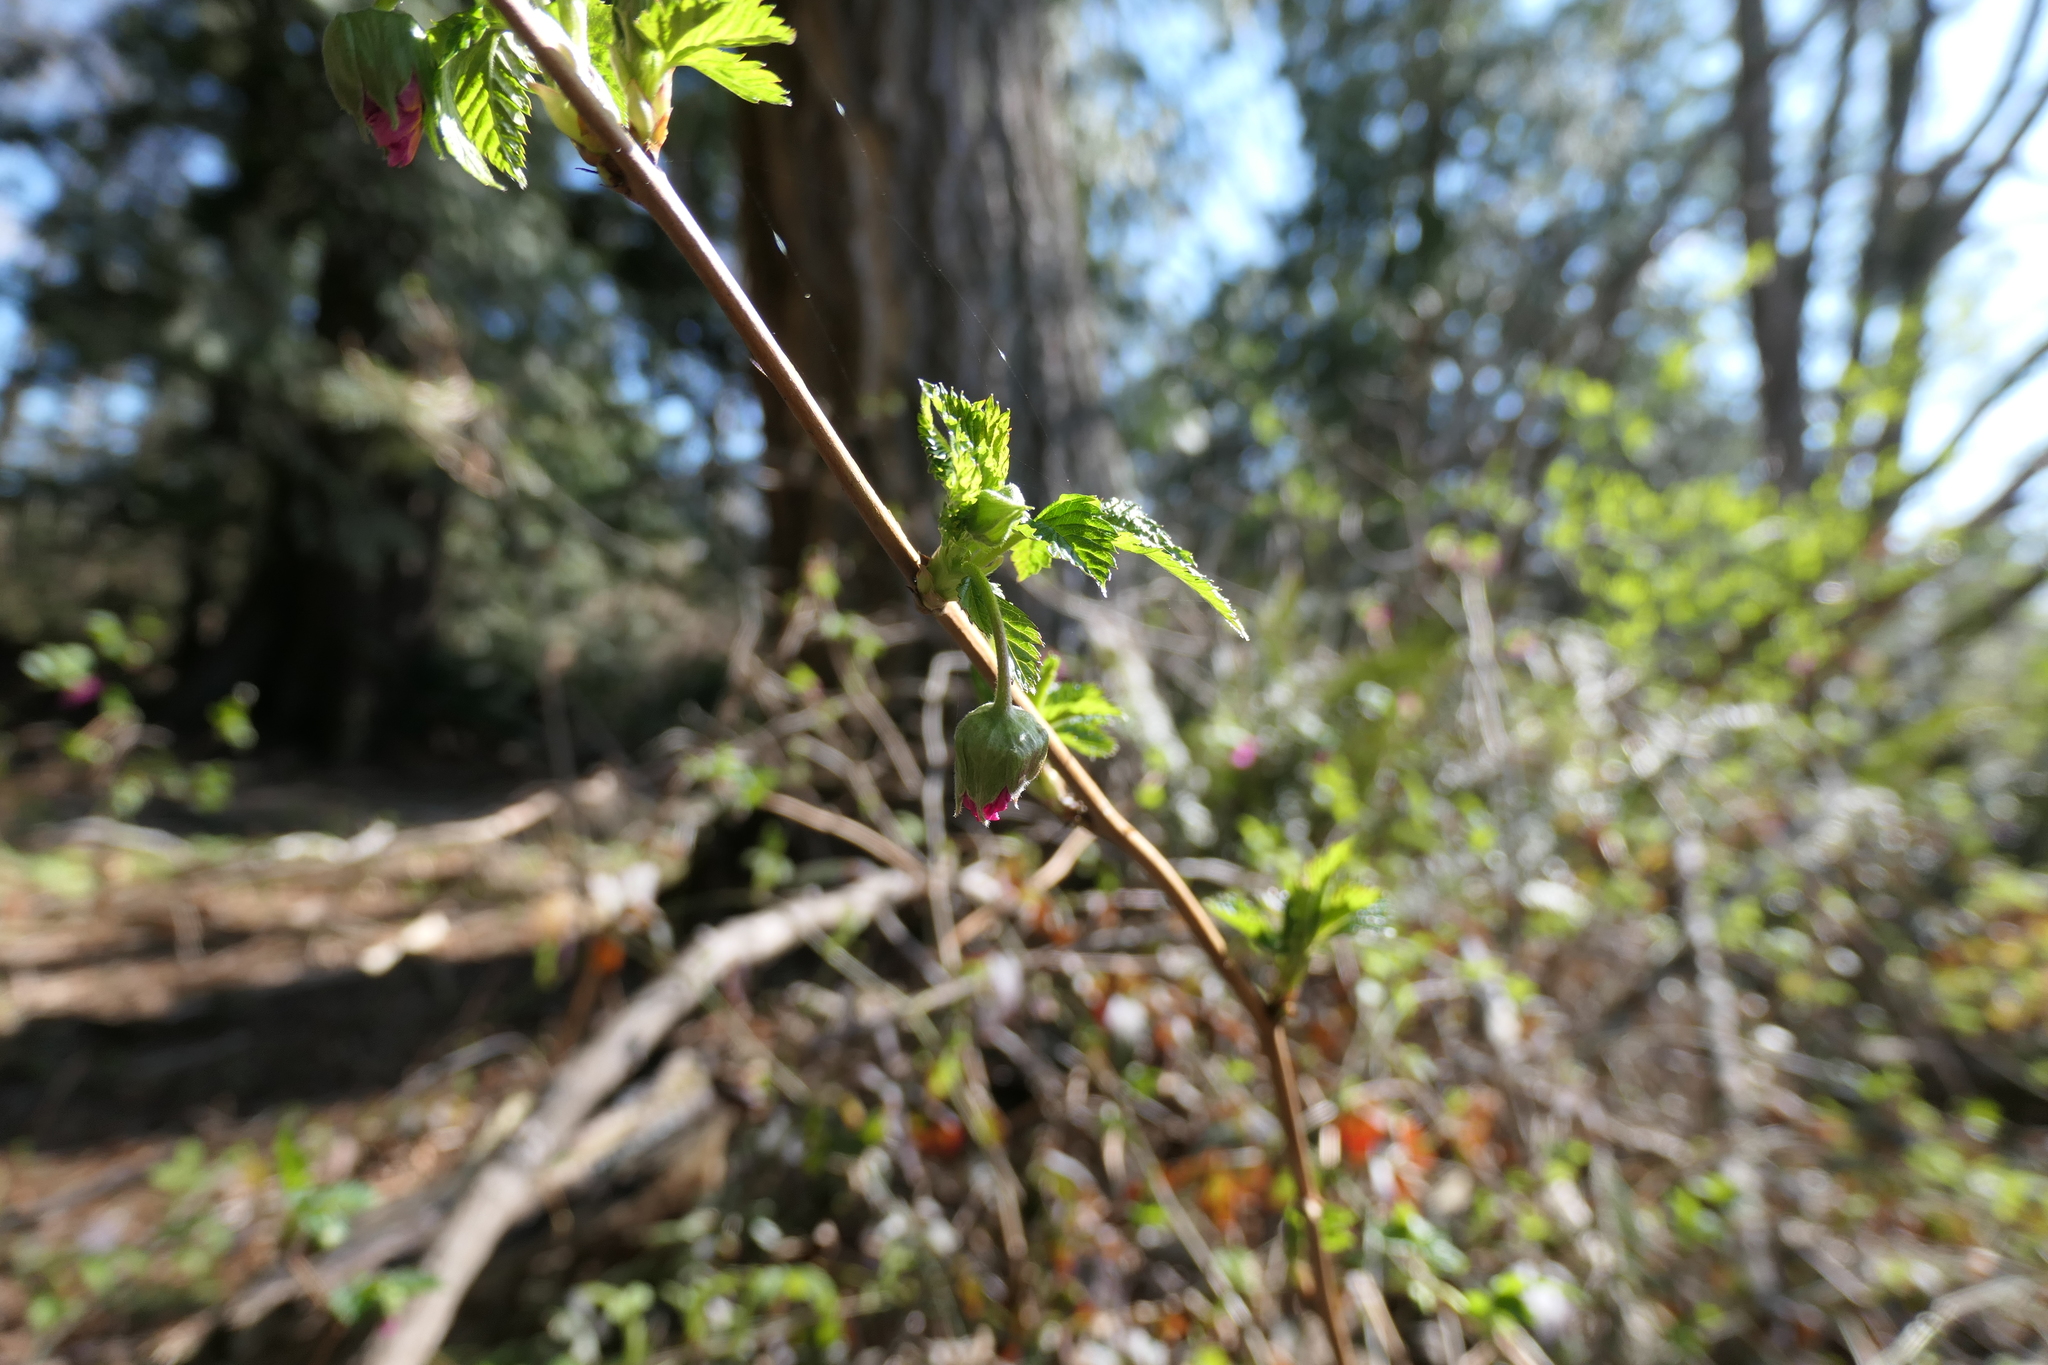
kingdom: Plantae
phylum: Tracheophyta
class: Magnoliopsida
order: Rosales
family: Rosaceae
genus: Rubus
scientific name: Rubus spectabilis
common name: Salmonberry
